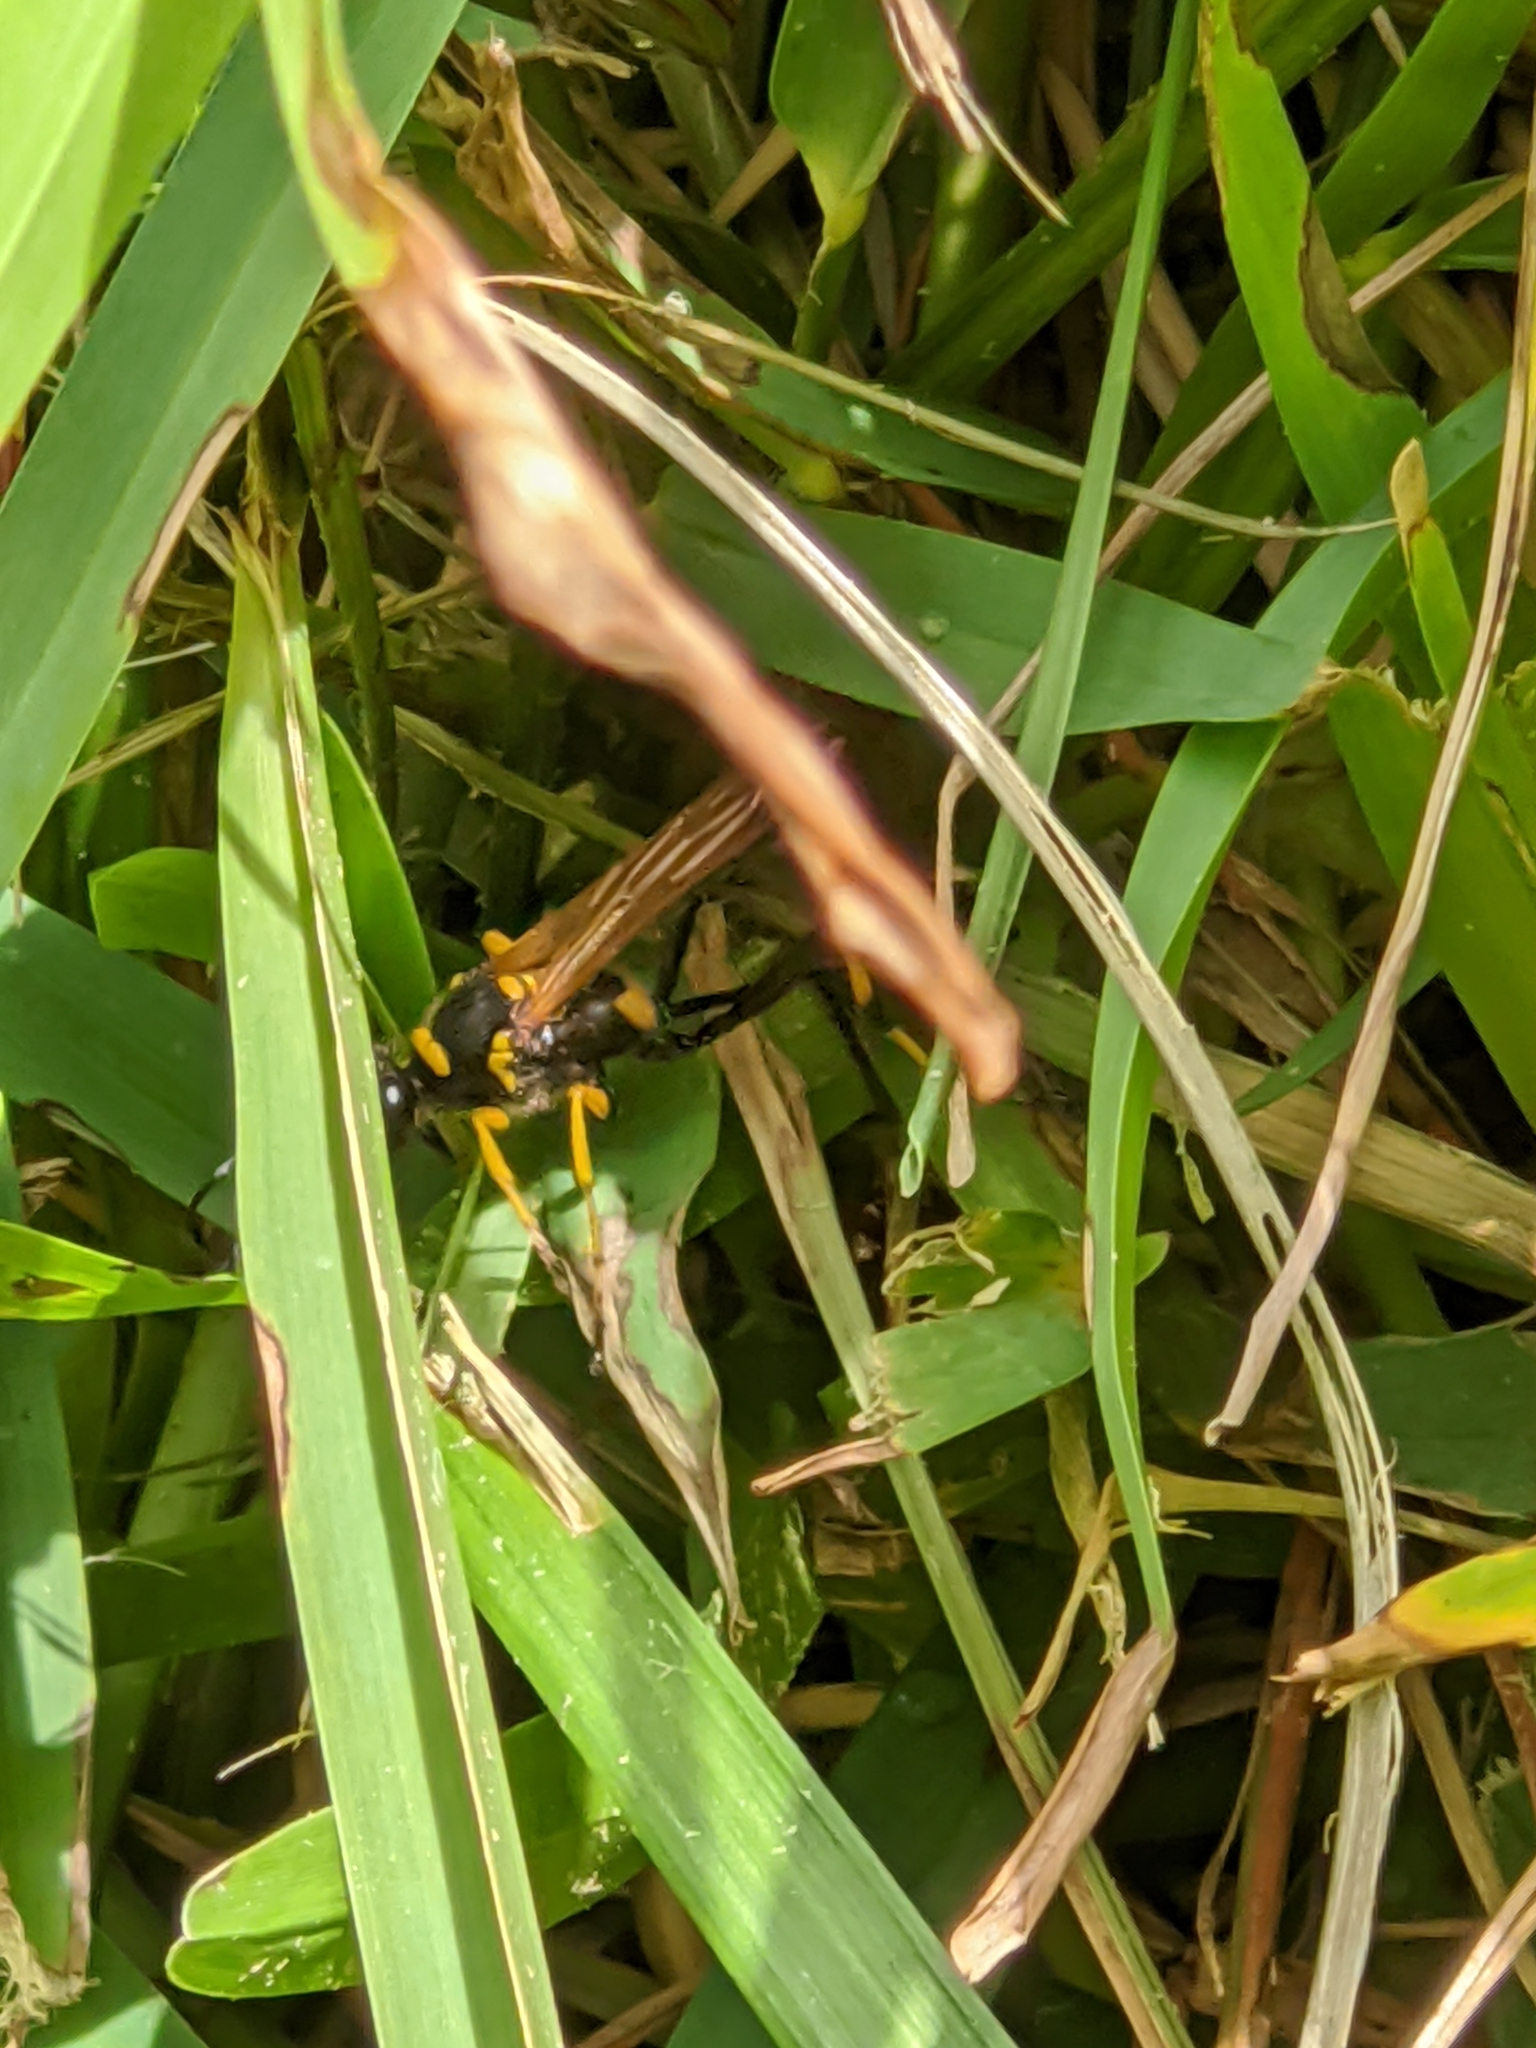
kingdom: Animalia
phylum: Arthropoda
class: Insecta
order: Hymenoptera
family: Sphecidae
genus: Sceliphron
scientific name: Sceliphron caementarium
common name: Mud dauber
